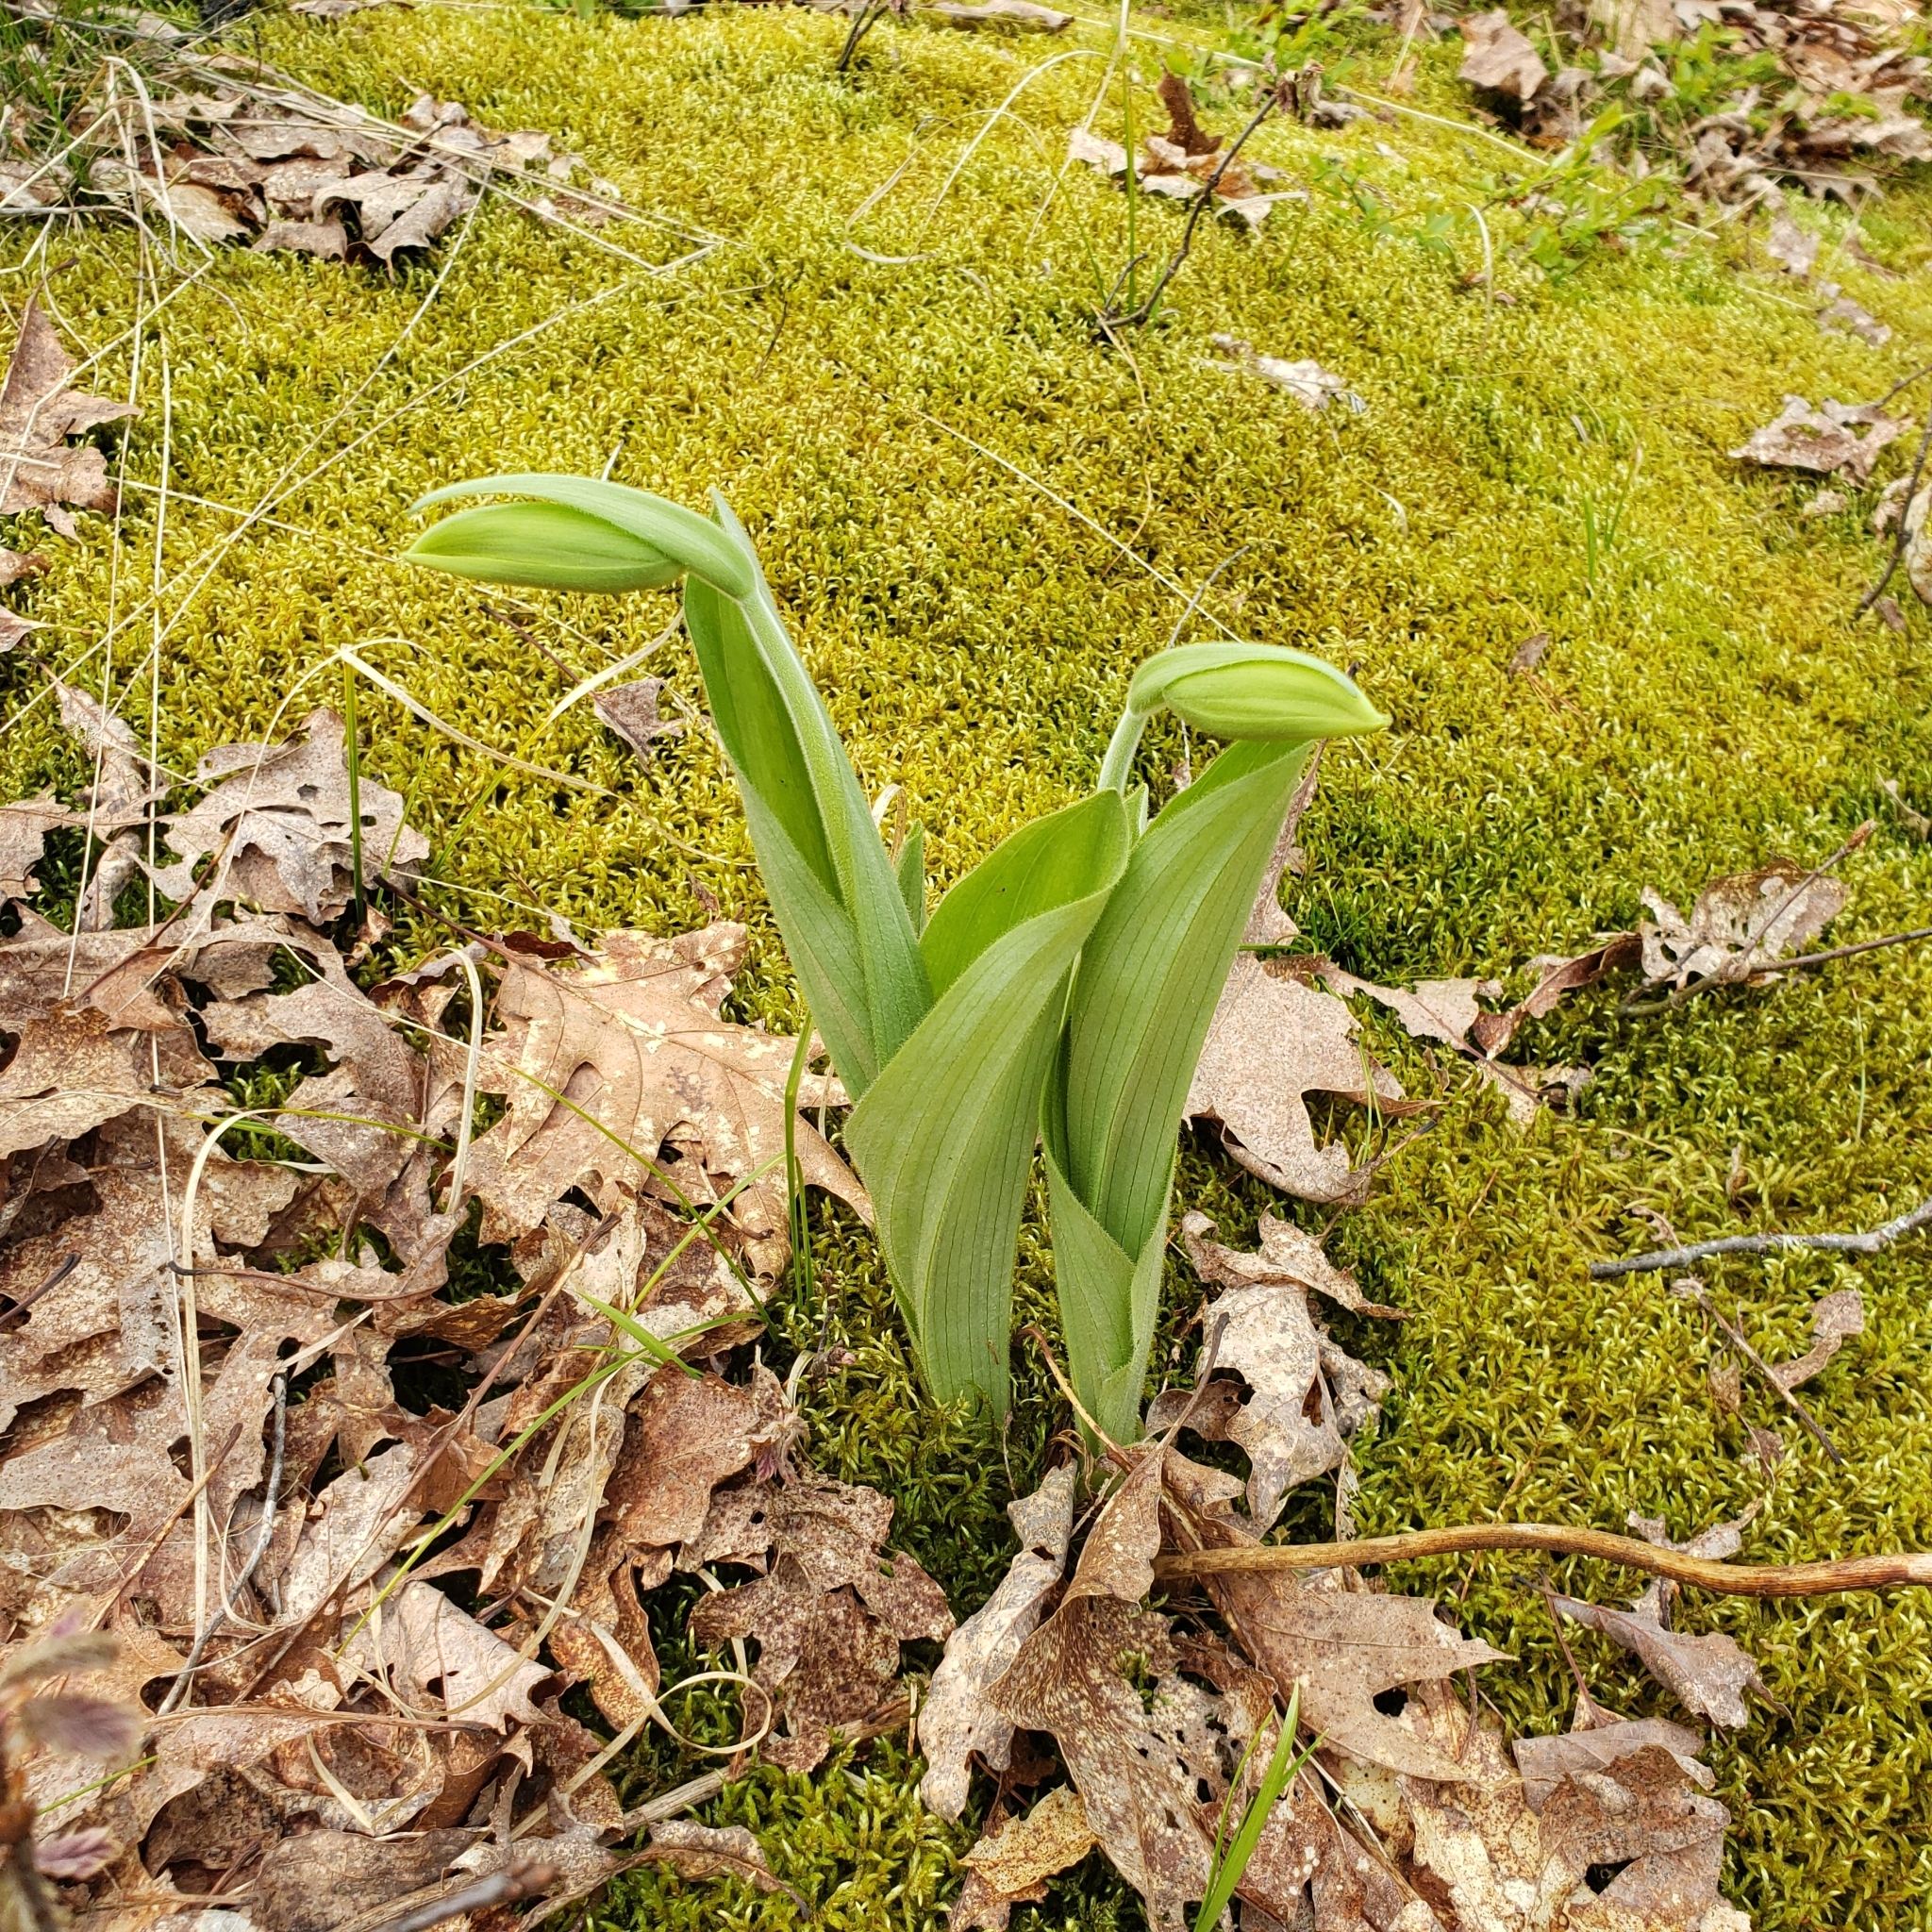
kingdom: Plantae
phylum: Tracheophyta
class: Liliopsida
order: Asparagales
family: Orchidaceae
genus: Cypripedium
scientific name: Cypripedium acaule
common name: Pink lady's-slipper
